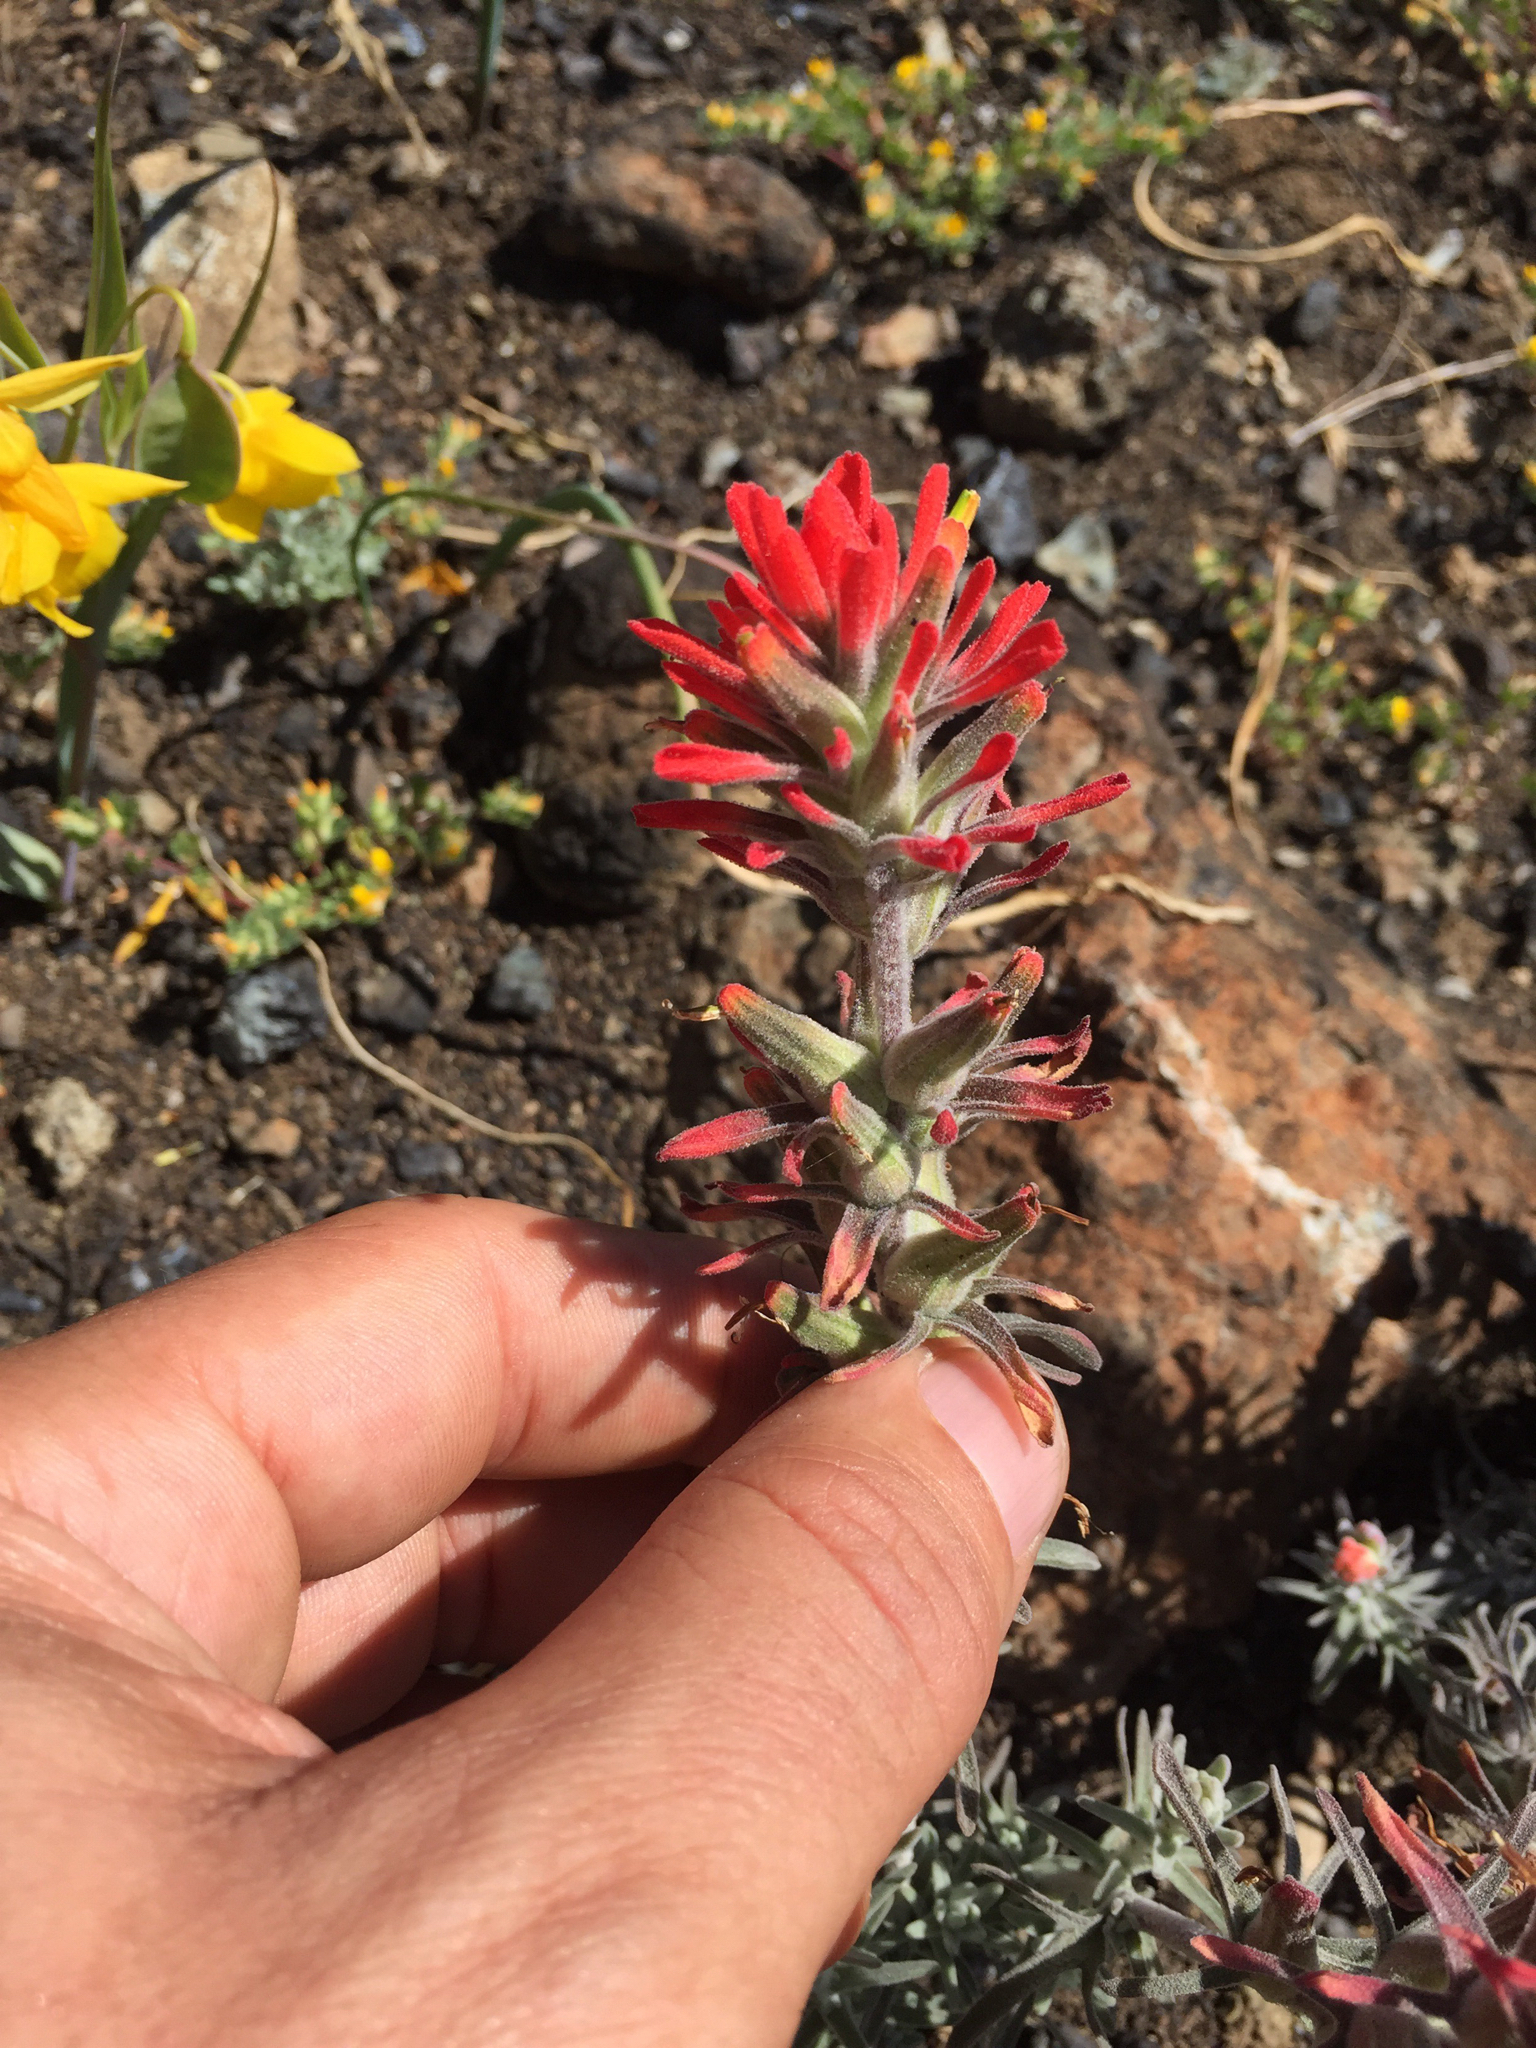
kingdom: Plantae
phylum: Tracheophyta
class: Magnoliopsida
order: Lamiales
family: Orobanchaceae
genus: Castilleja
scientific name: Castilleja foliolosa
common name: Woolly indian paintbrush
